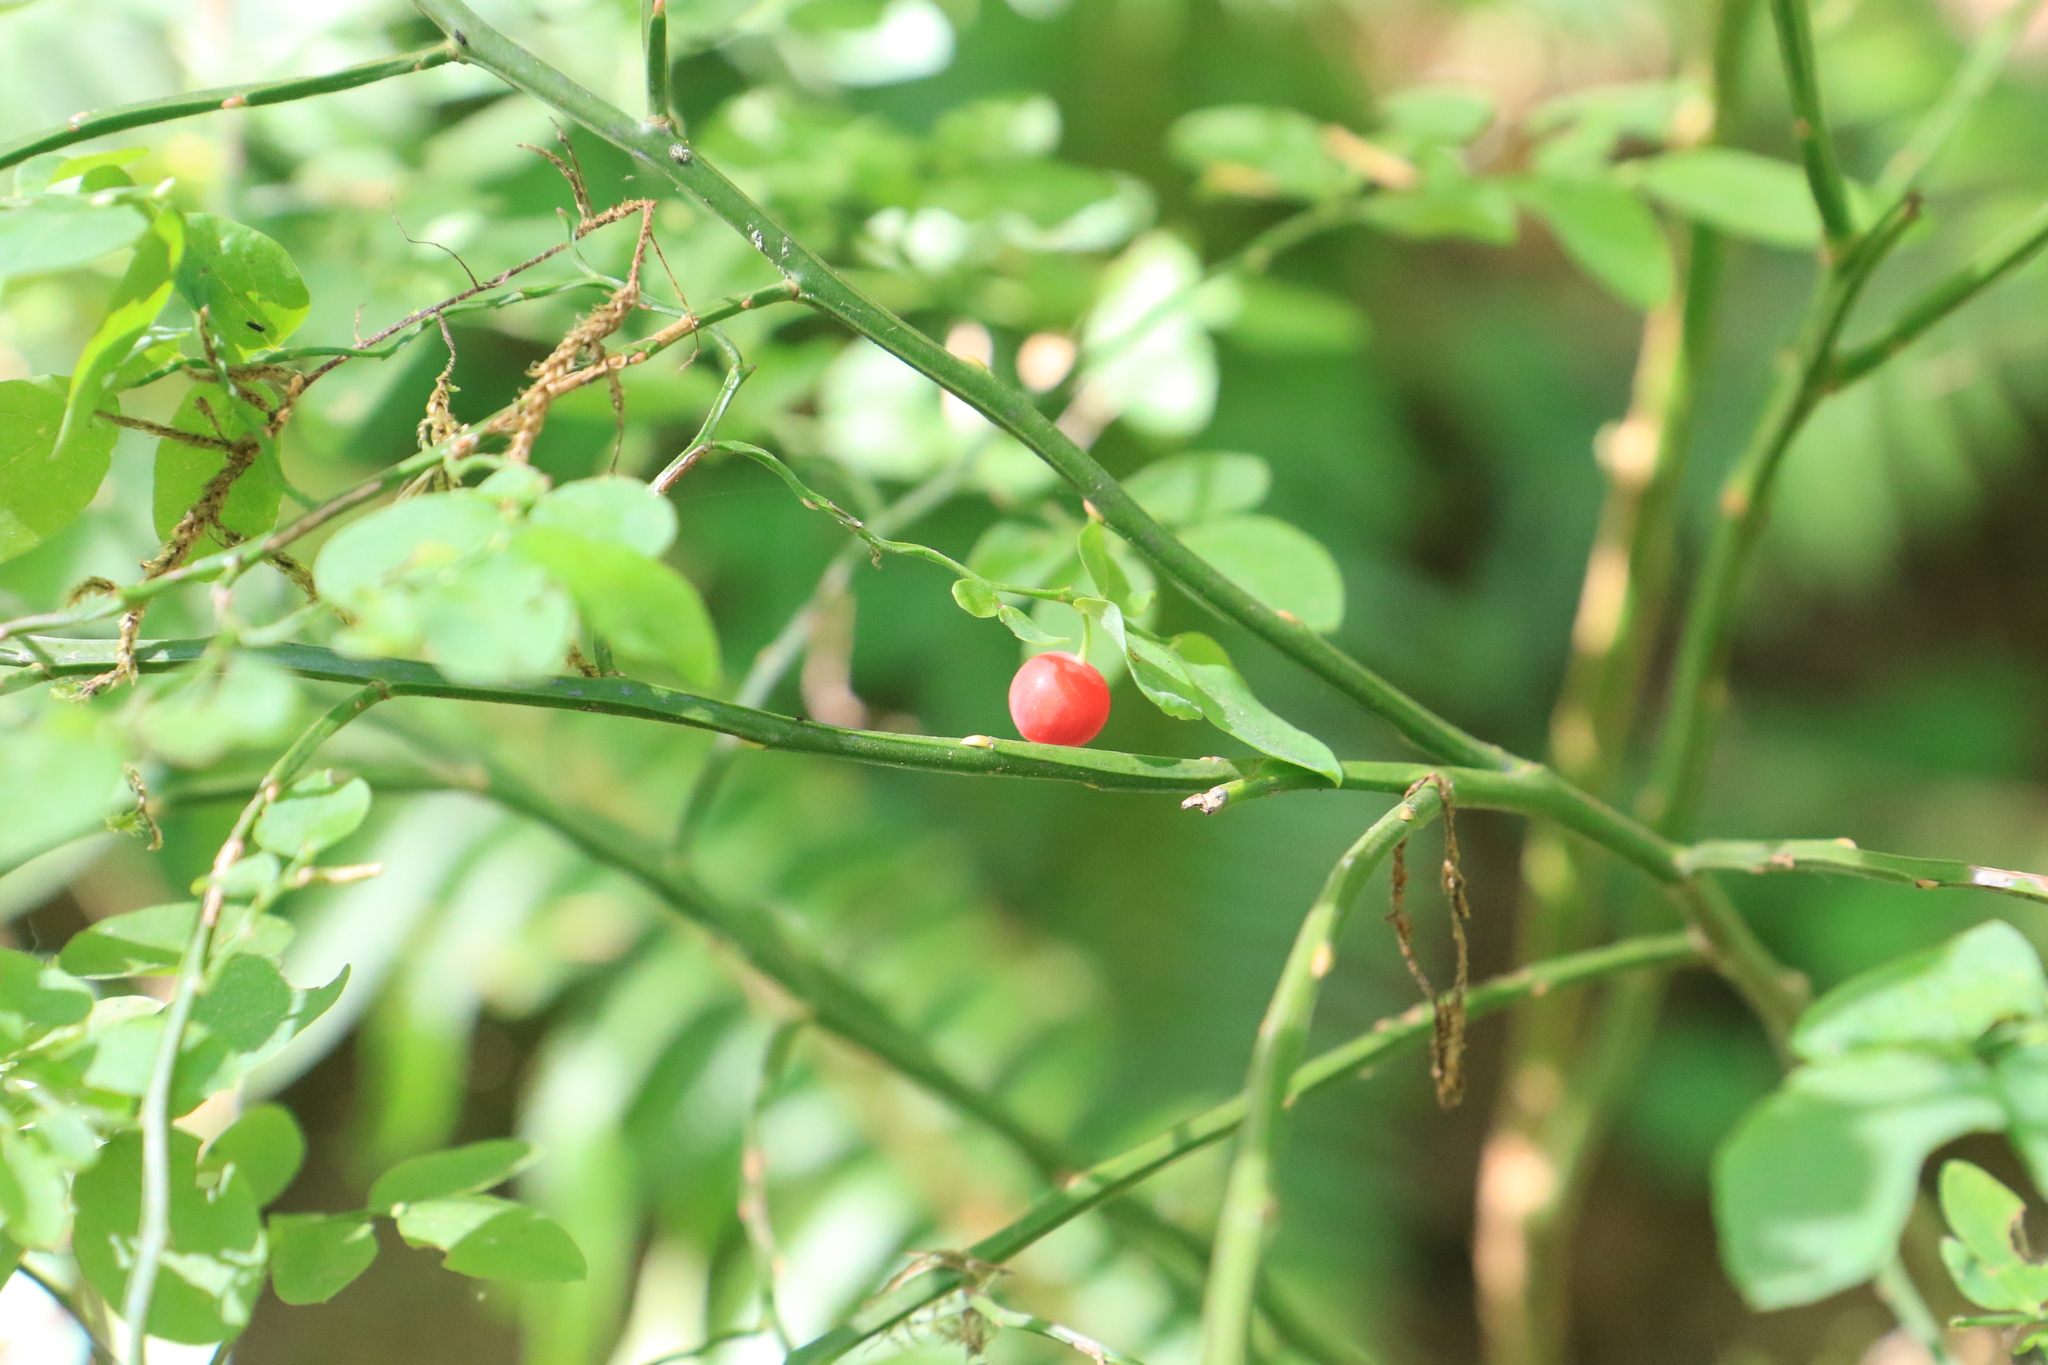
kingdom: Plantae
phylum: Tracheophyta
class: Magnoliopsida
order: Ericales
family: Ericaceae
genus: Vaccinium
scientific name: Vaccinium parvifolium
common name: Red-huckleberry
